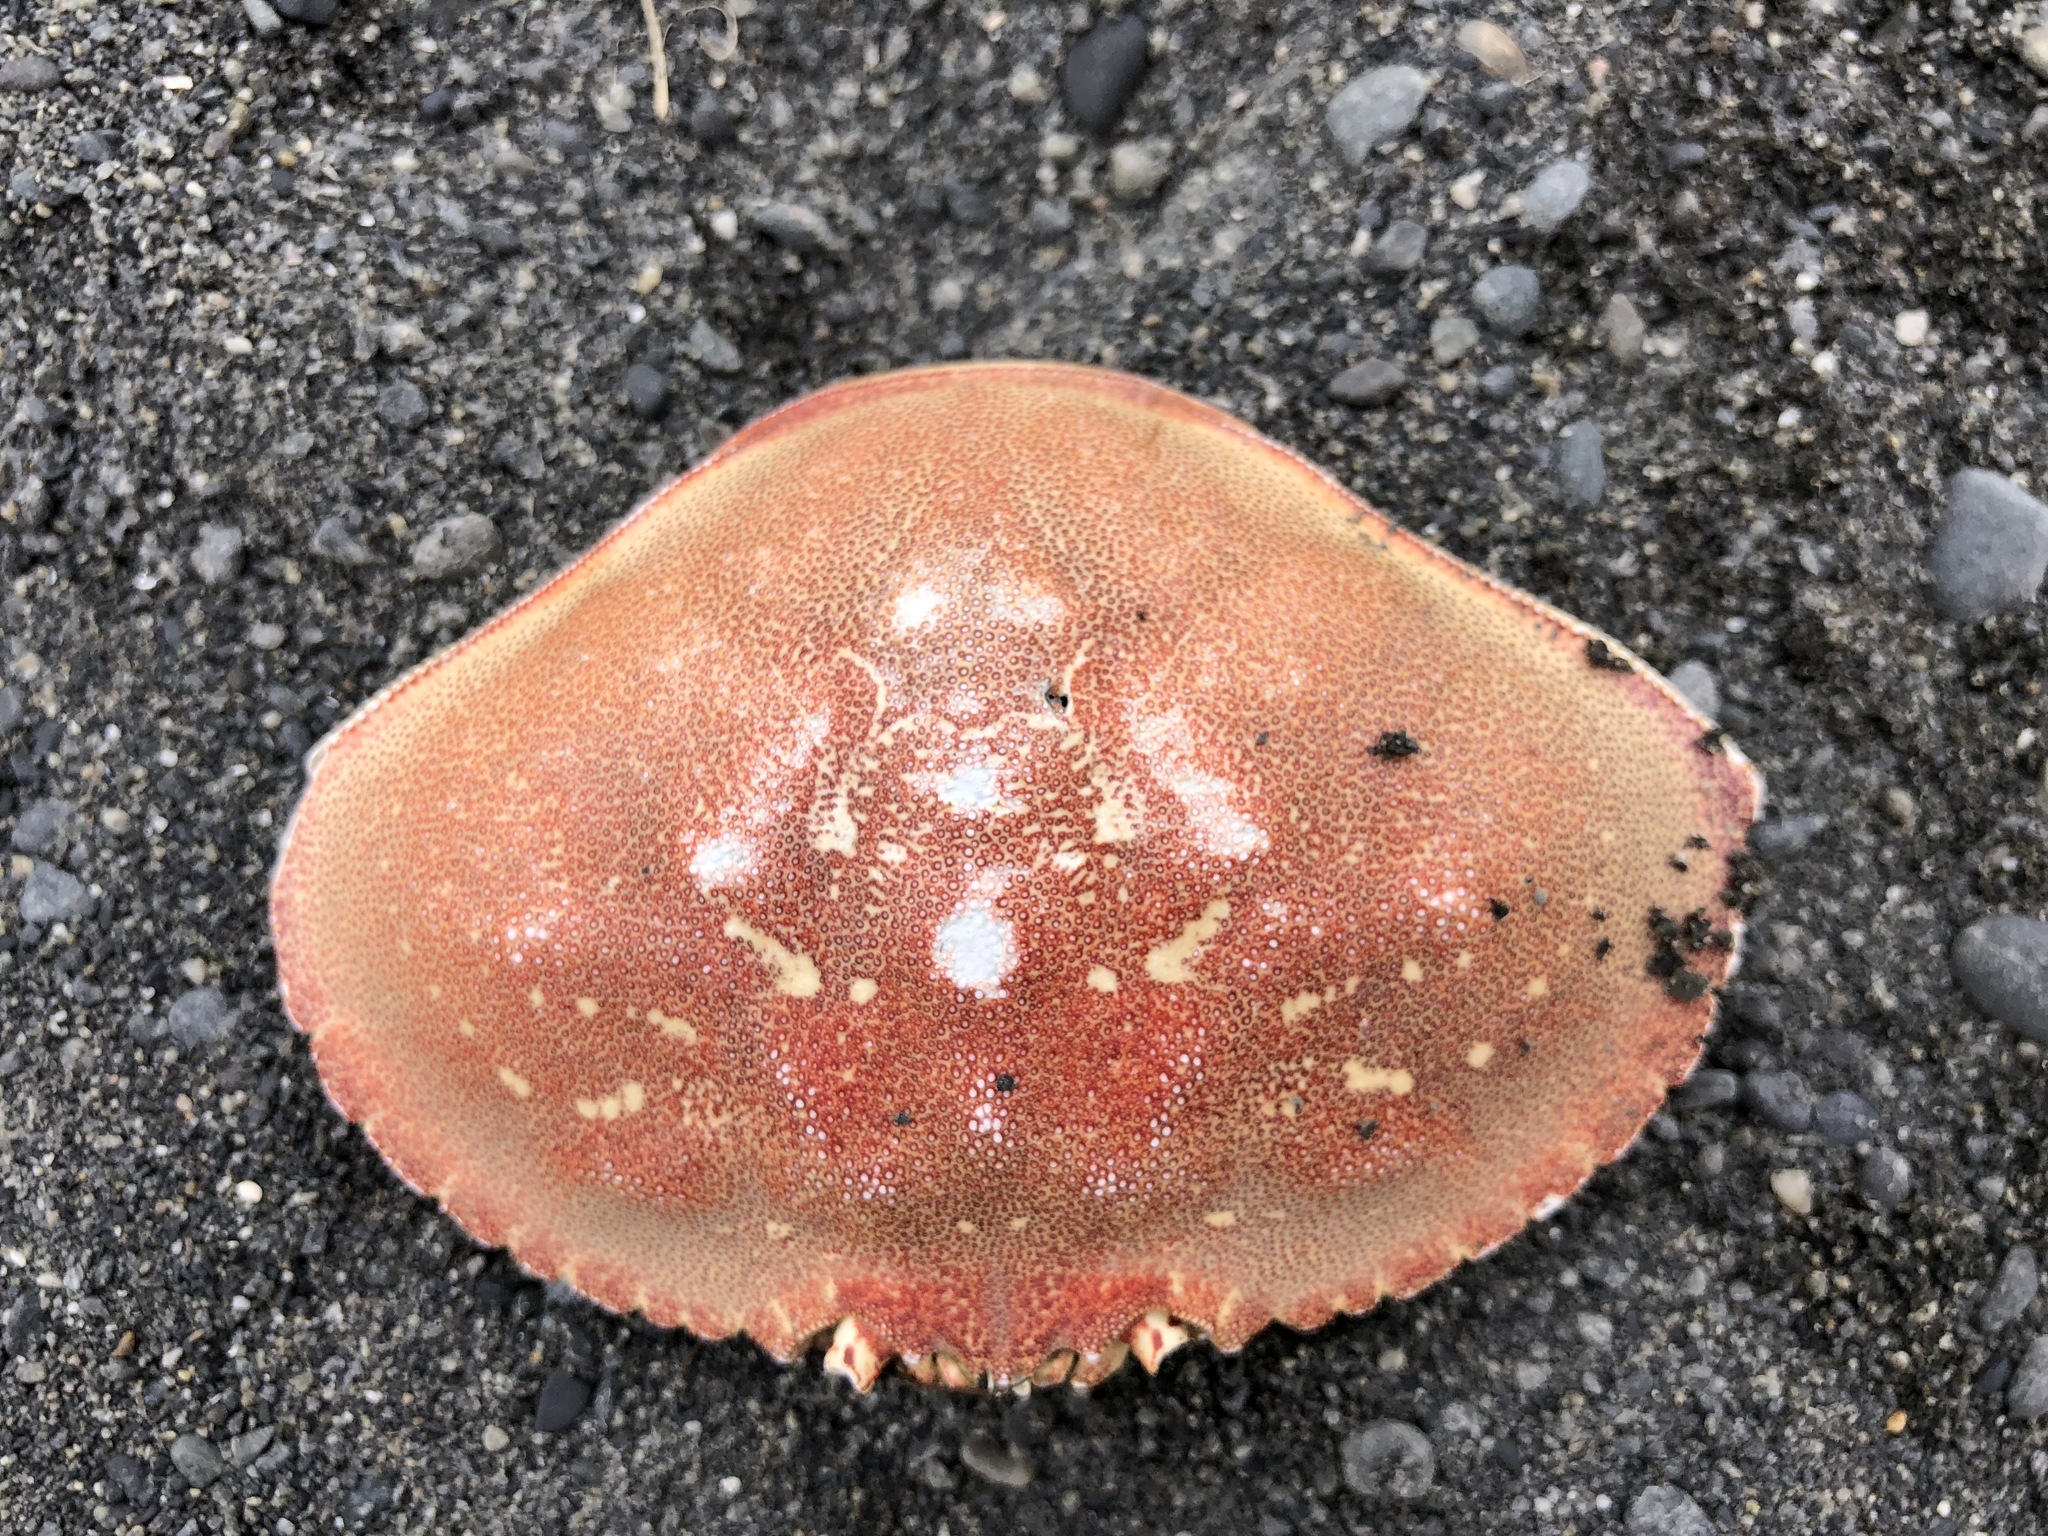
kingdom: Animalia
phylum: Arthropoda
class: Malacostraca
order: Decapoda
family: Cancridae
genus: Metacarcinus
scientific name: Metacarcinus magister
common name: Californian crab
